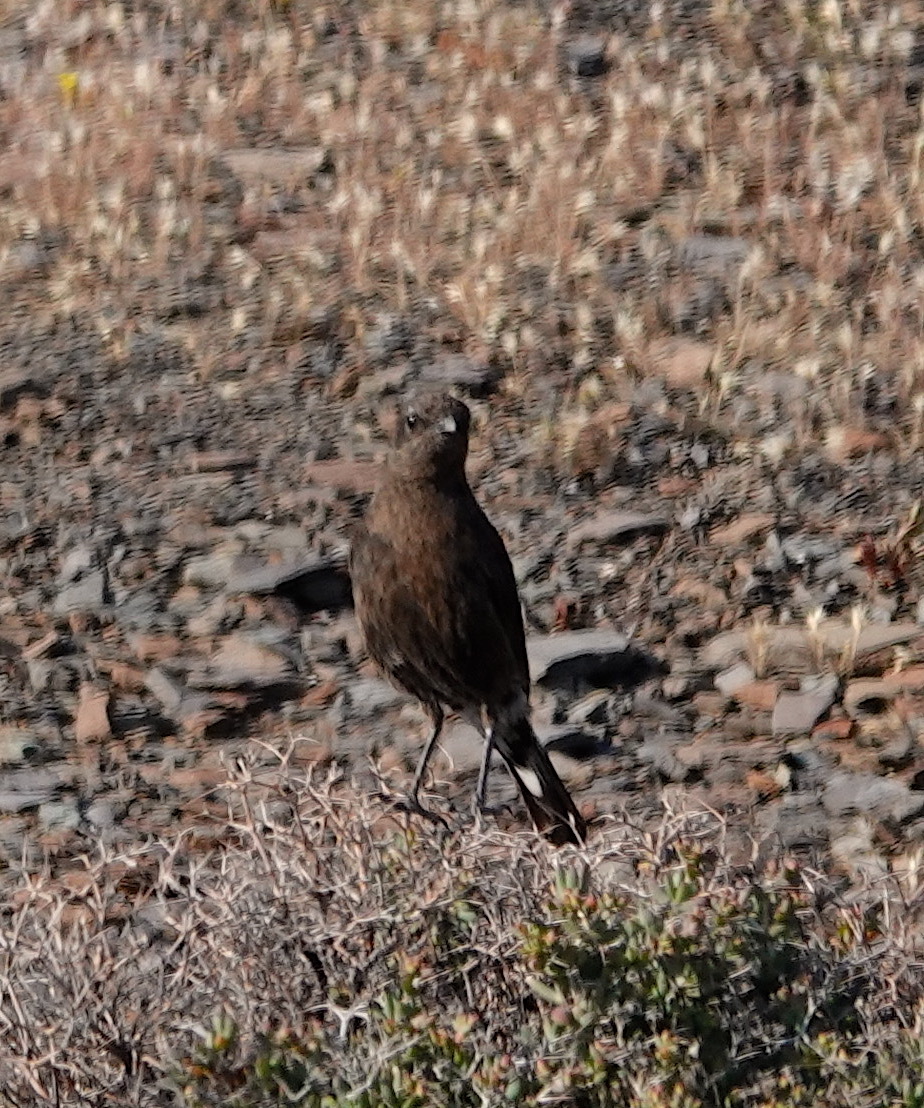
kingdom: Animalia
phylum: Chordata
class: Aves
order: Passeriformes
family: Muscicapidae
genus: Myrmecocichla
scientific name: Myrmecocichla formicivora
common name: Ant-eating chat
